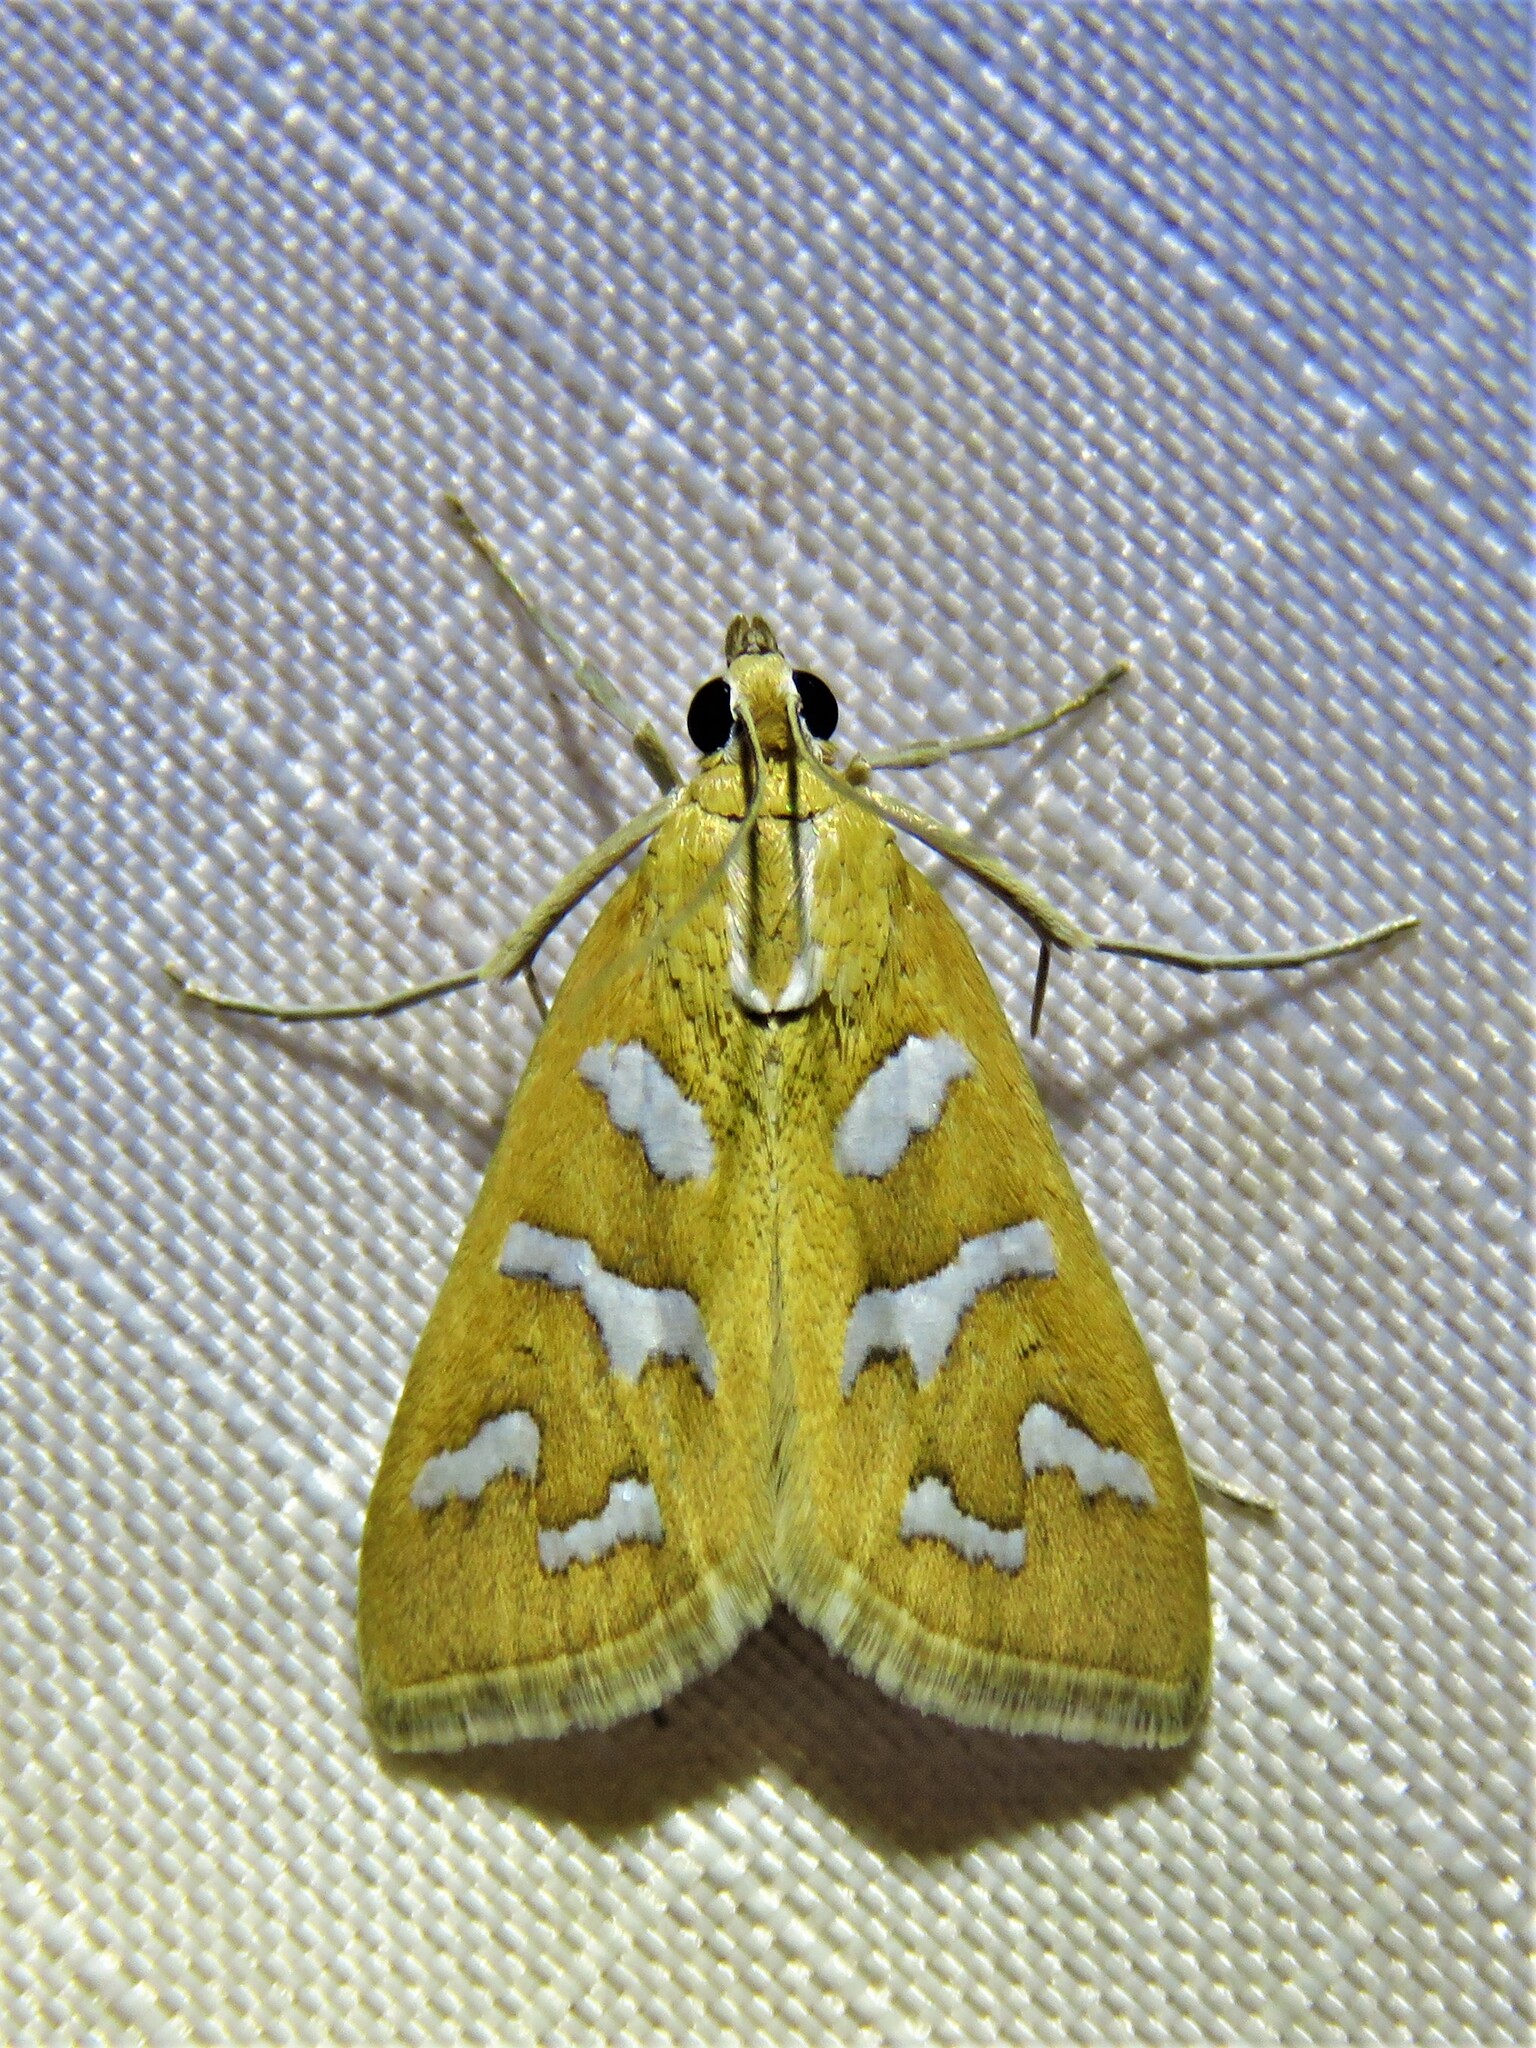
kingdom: Animalia
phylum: Arthropoda
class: Insecta
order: Lepidoptera
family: Crambidae
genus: Diastictis
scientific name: Diastictis fracturalis
